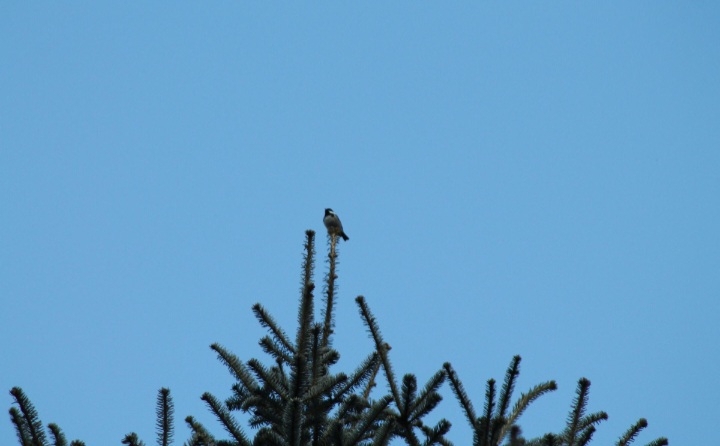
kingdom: Animalia
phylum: Chordata
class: Aves
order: Passeriformes
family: Paridae
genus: Periparus
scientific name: Periparus ater
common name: Coal tit
